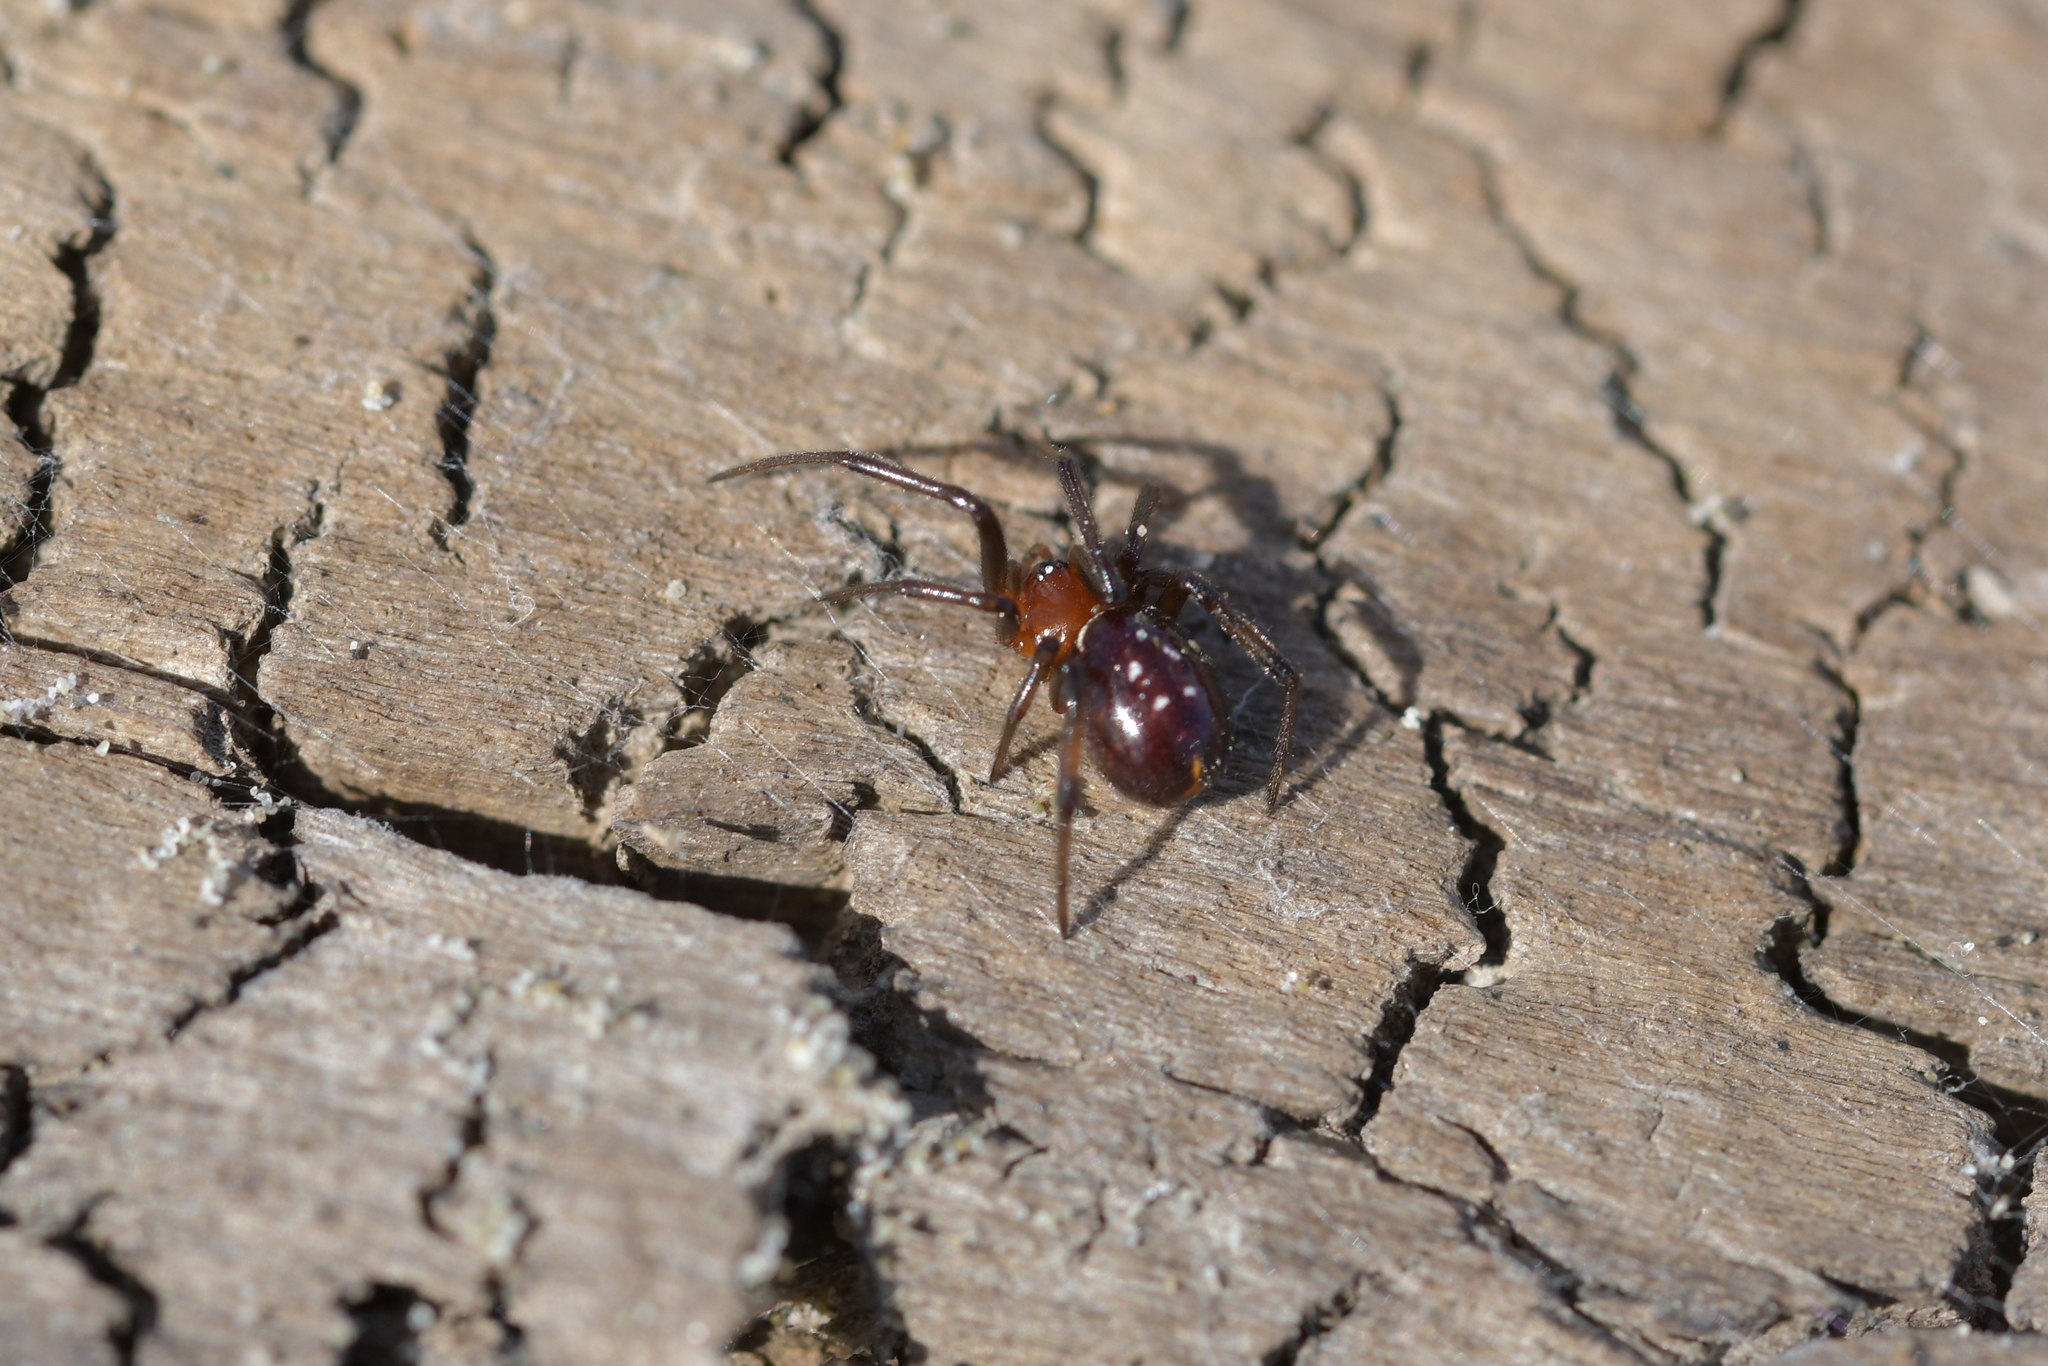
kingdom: Animalia
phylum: Arthropoda
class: Arachnida
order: Araneae
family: Theridiidae
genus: Steatoda
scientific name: Steatoda capensis
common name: Cobweb weaver
